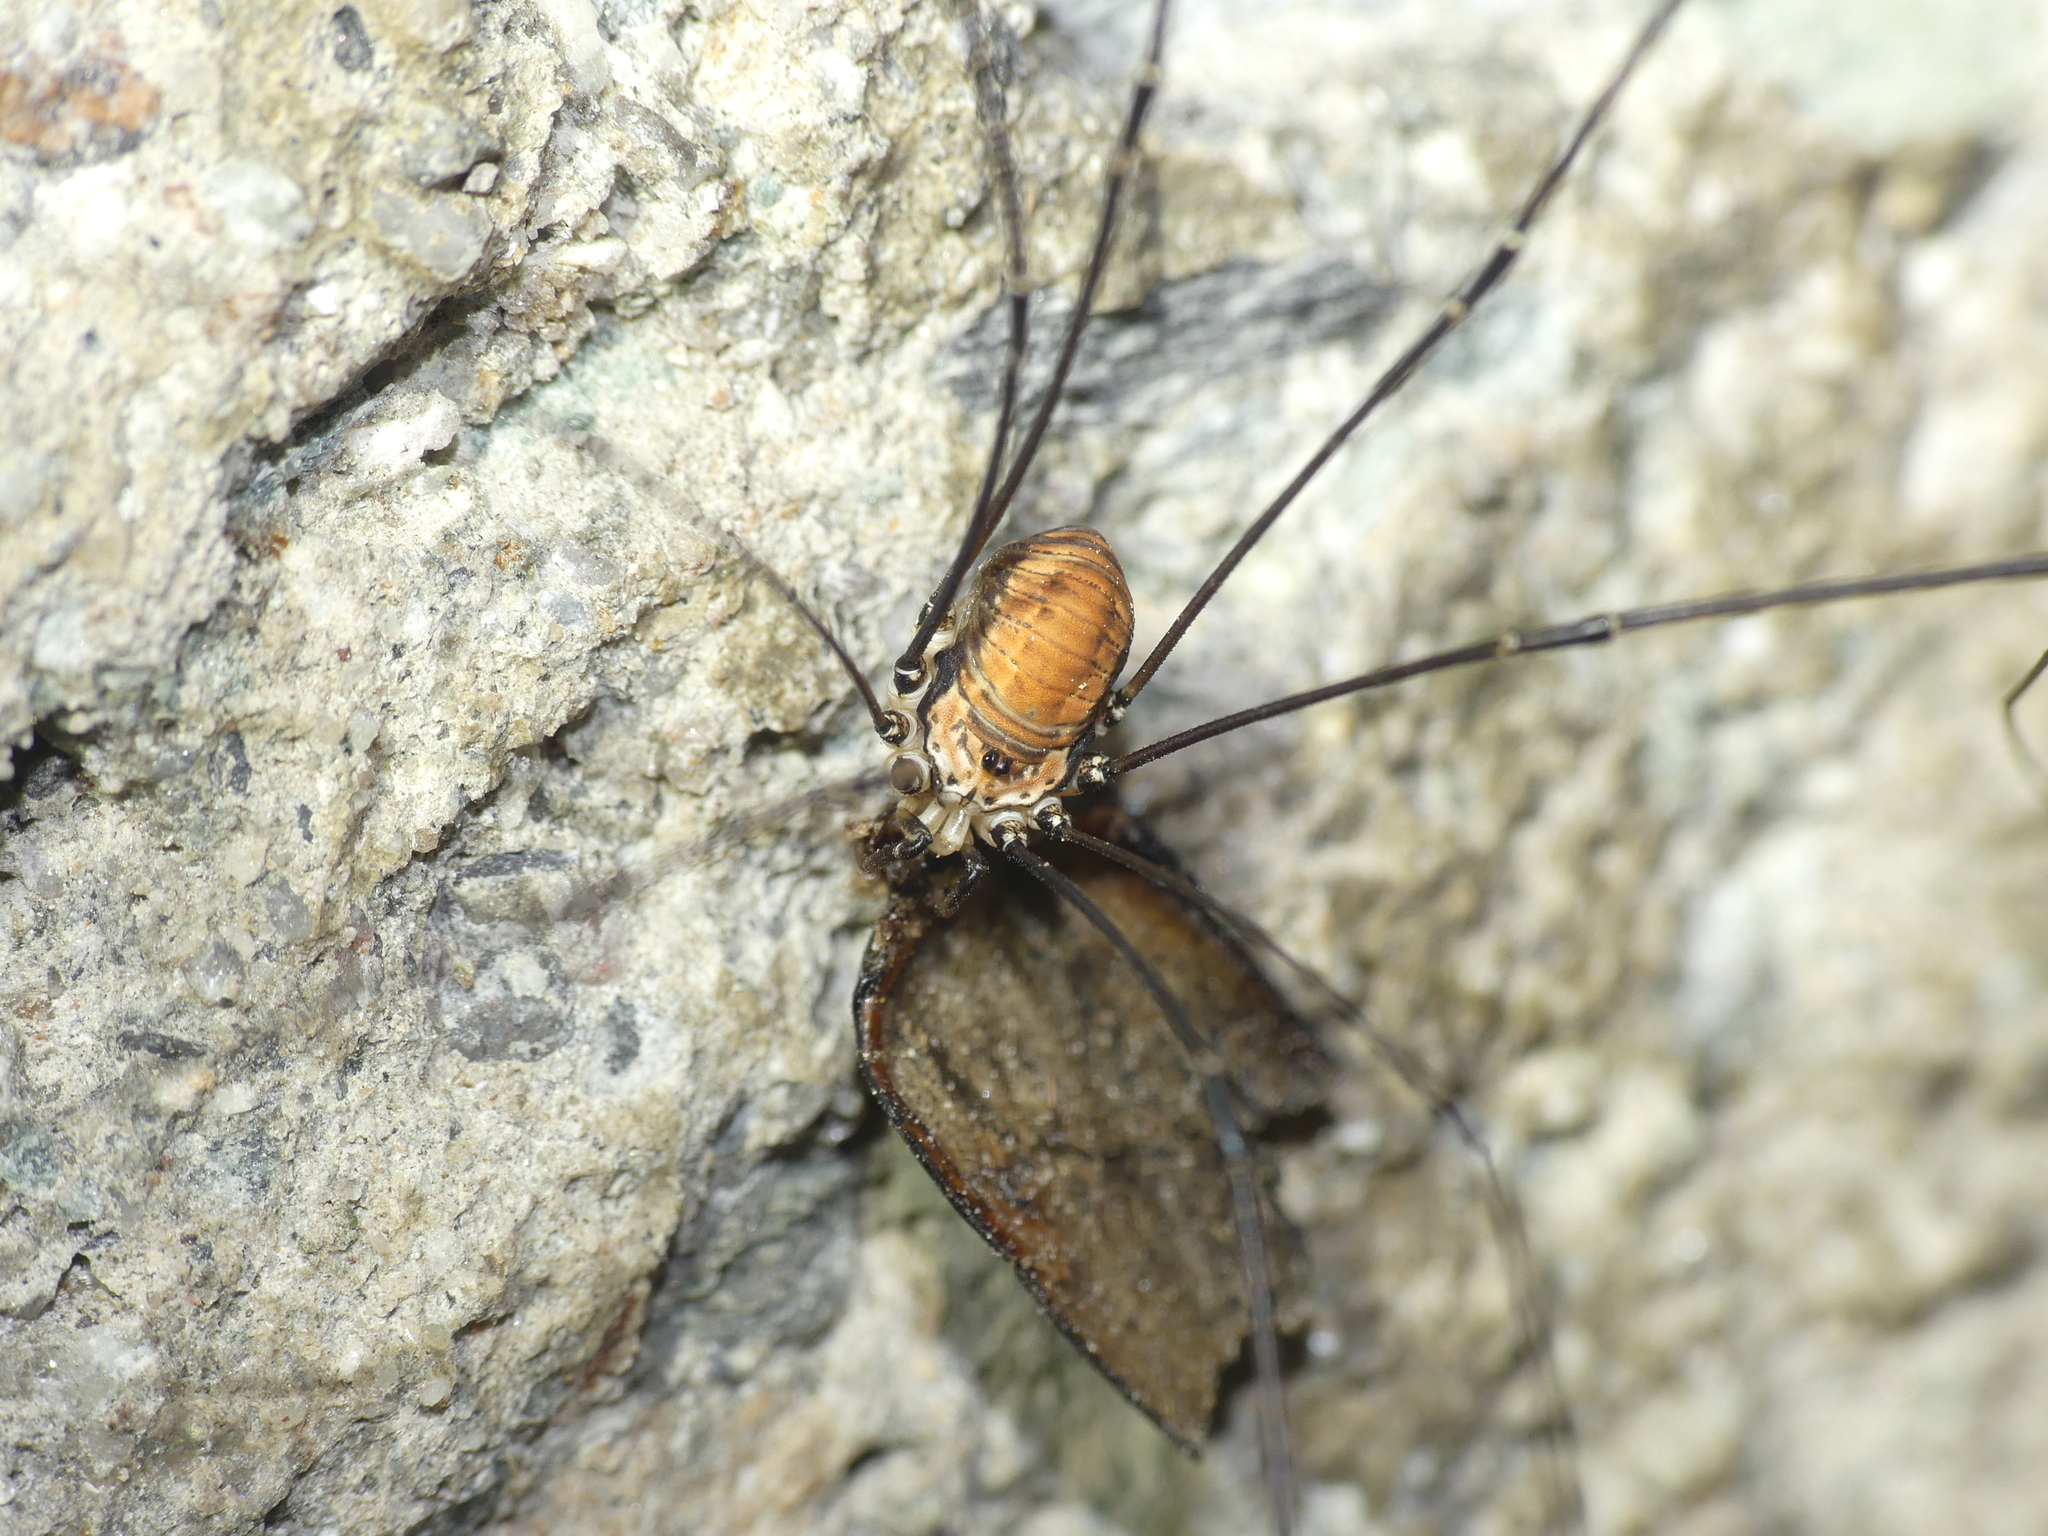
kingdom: Animalia
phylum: Arthropoda
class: Arachnida
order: Opiliones
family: Sclerosomatidae
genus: Leiobunum
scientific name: Leiobunum limbatum
